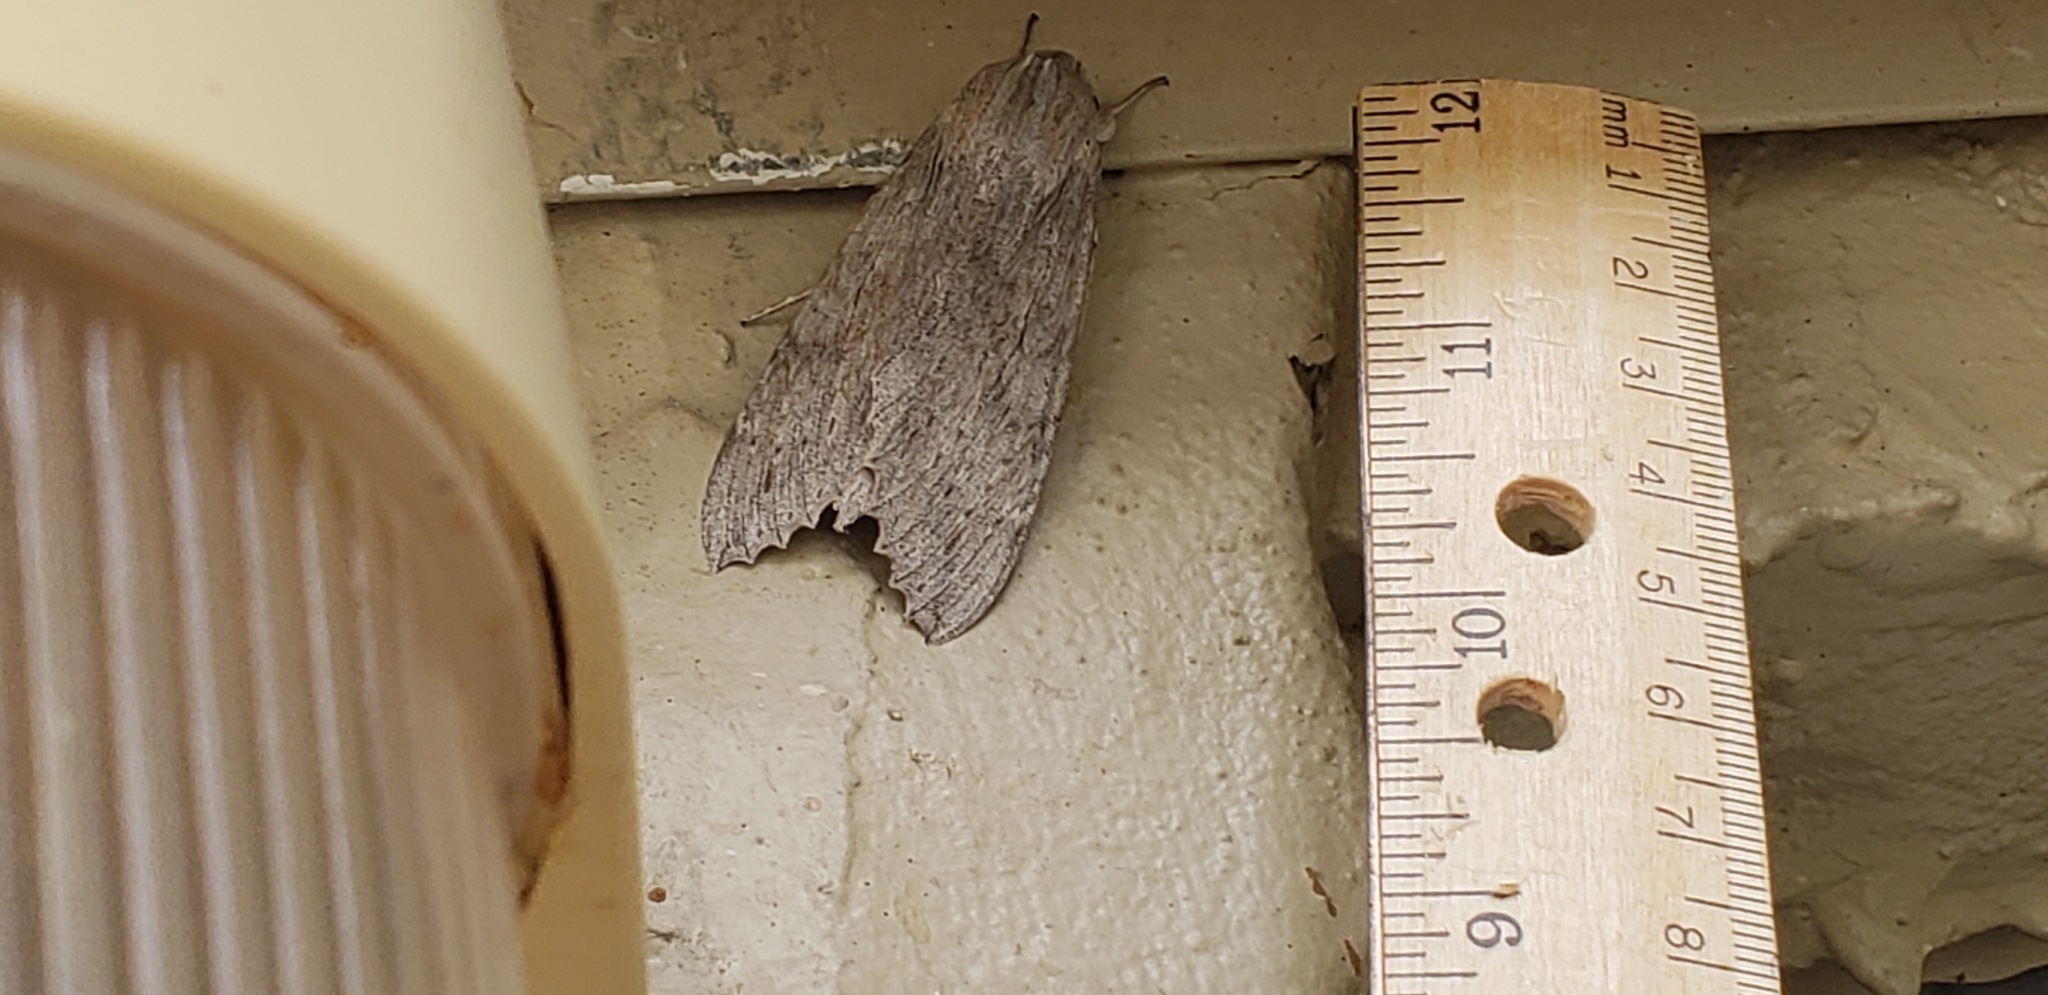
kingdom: Animalia
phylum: Arthropoda
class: Insecta
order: Lepidoptera
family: Sphingidae
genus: Erinnyis
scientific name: Erinnyis ello
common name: Ello sphinx
